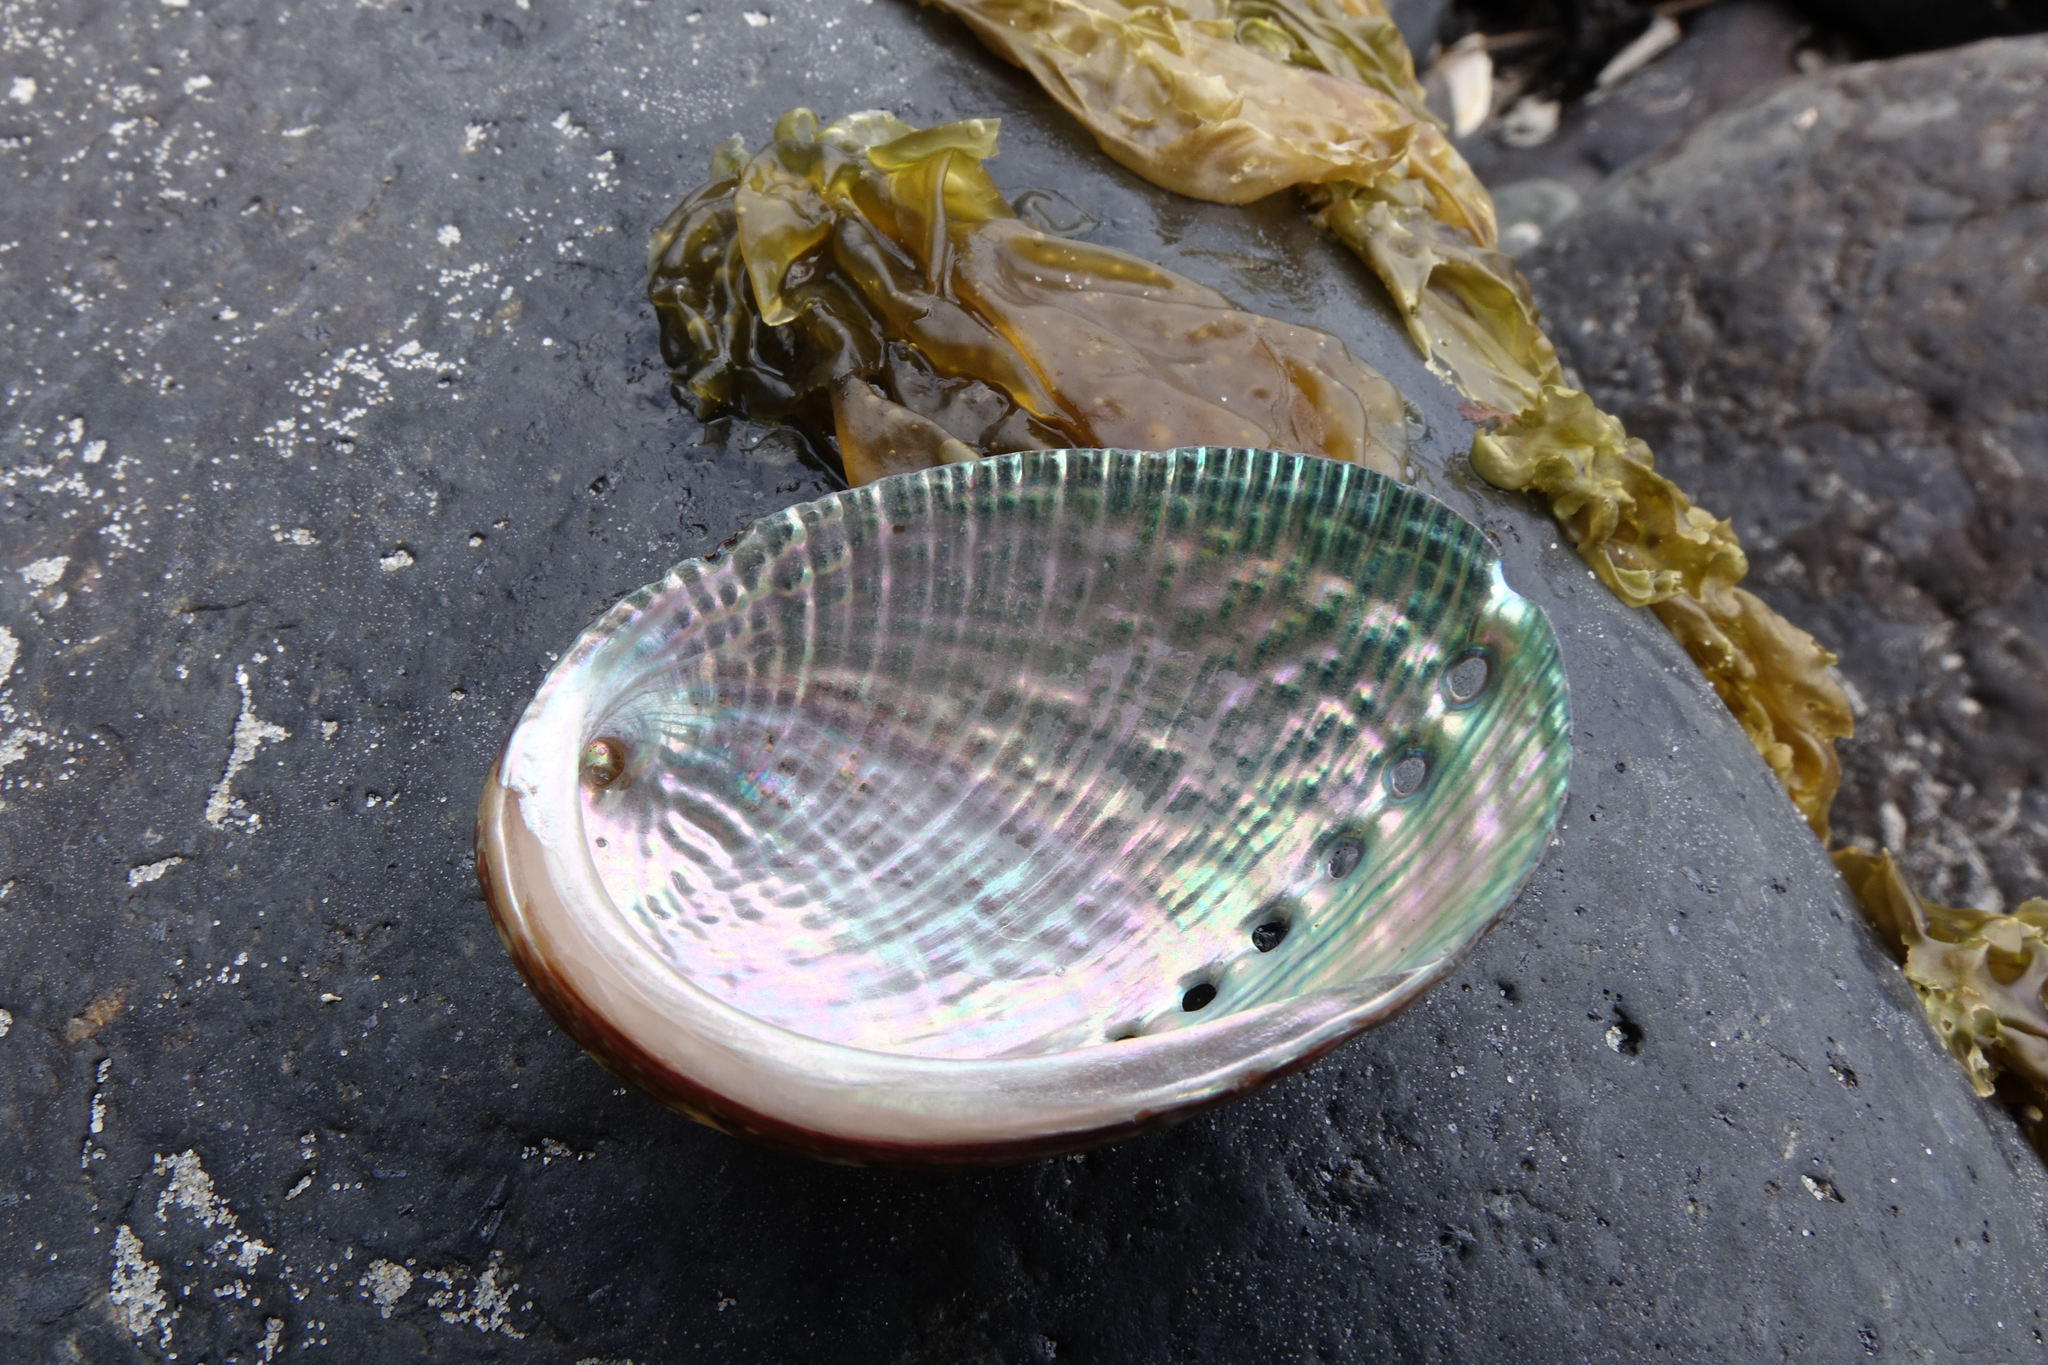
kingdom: Animalia
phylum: Mollusca
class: Gastropoda
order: Lepetellida
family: Haliotidae
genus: Haliotis
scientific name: Haliotis virginea
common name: Whitefoot paua
